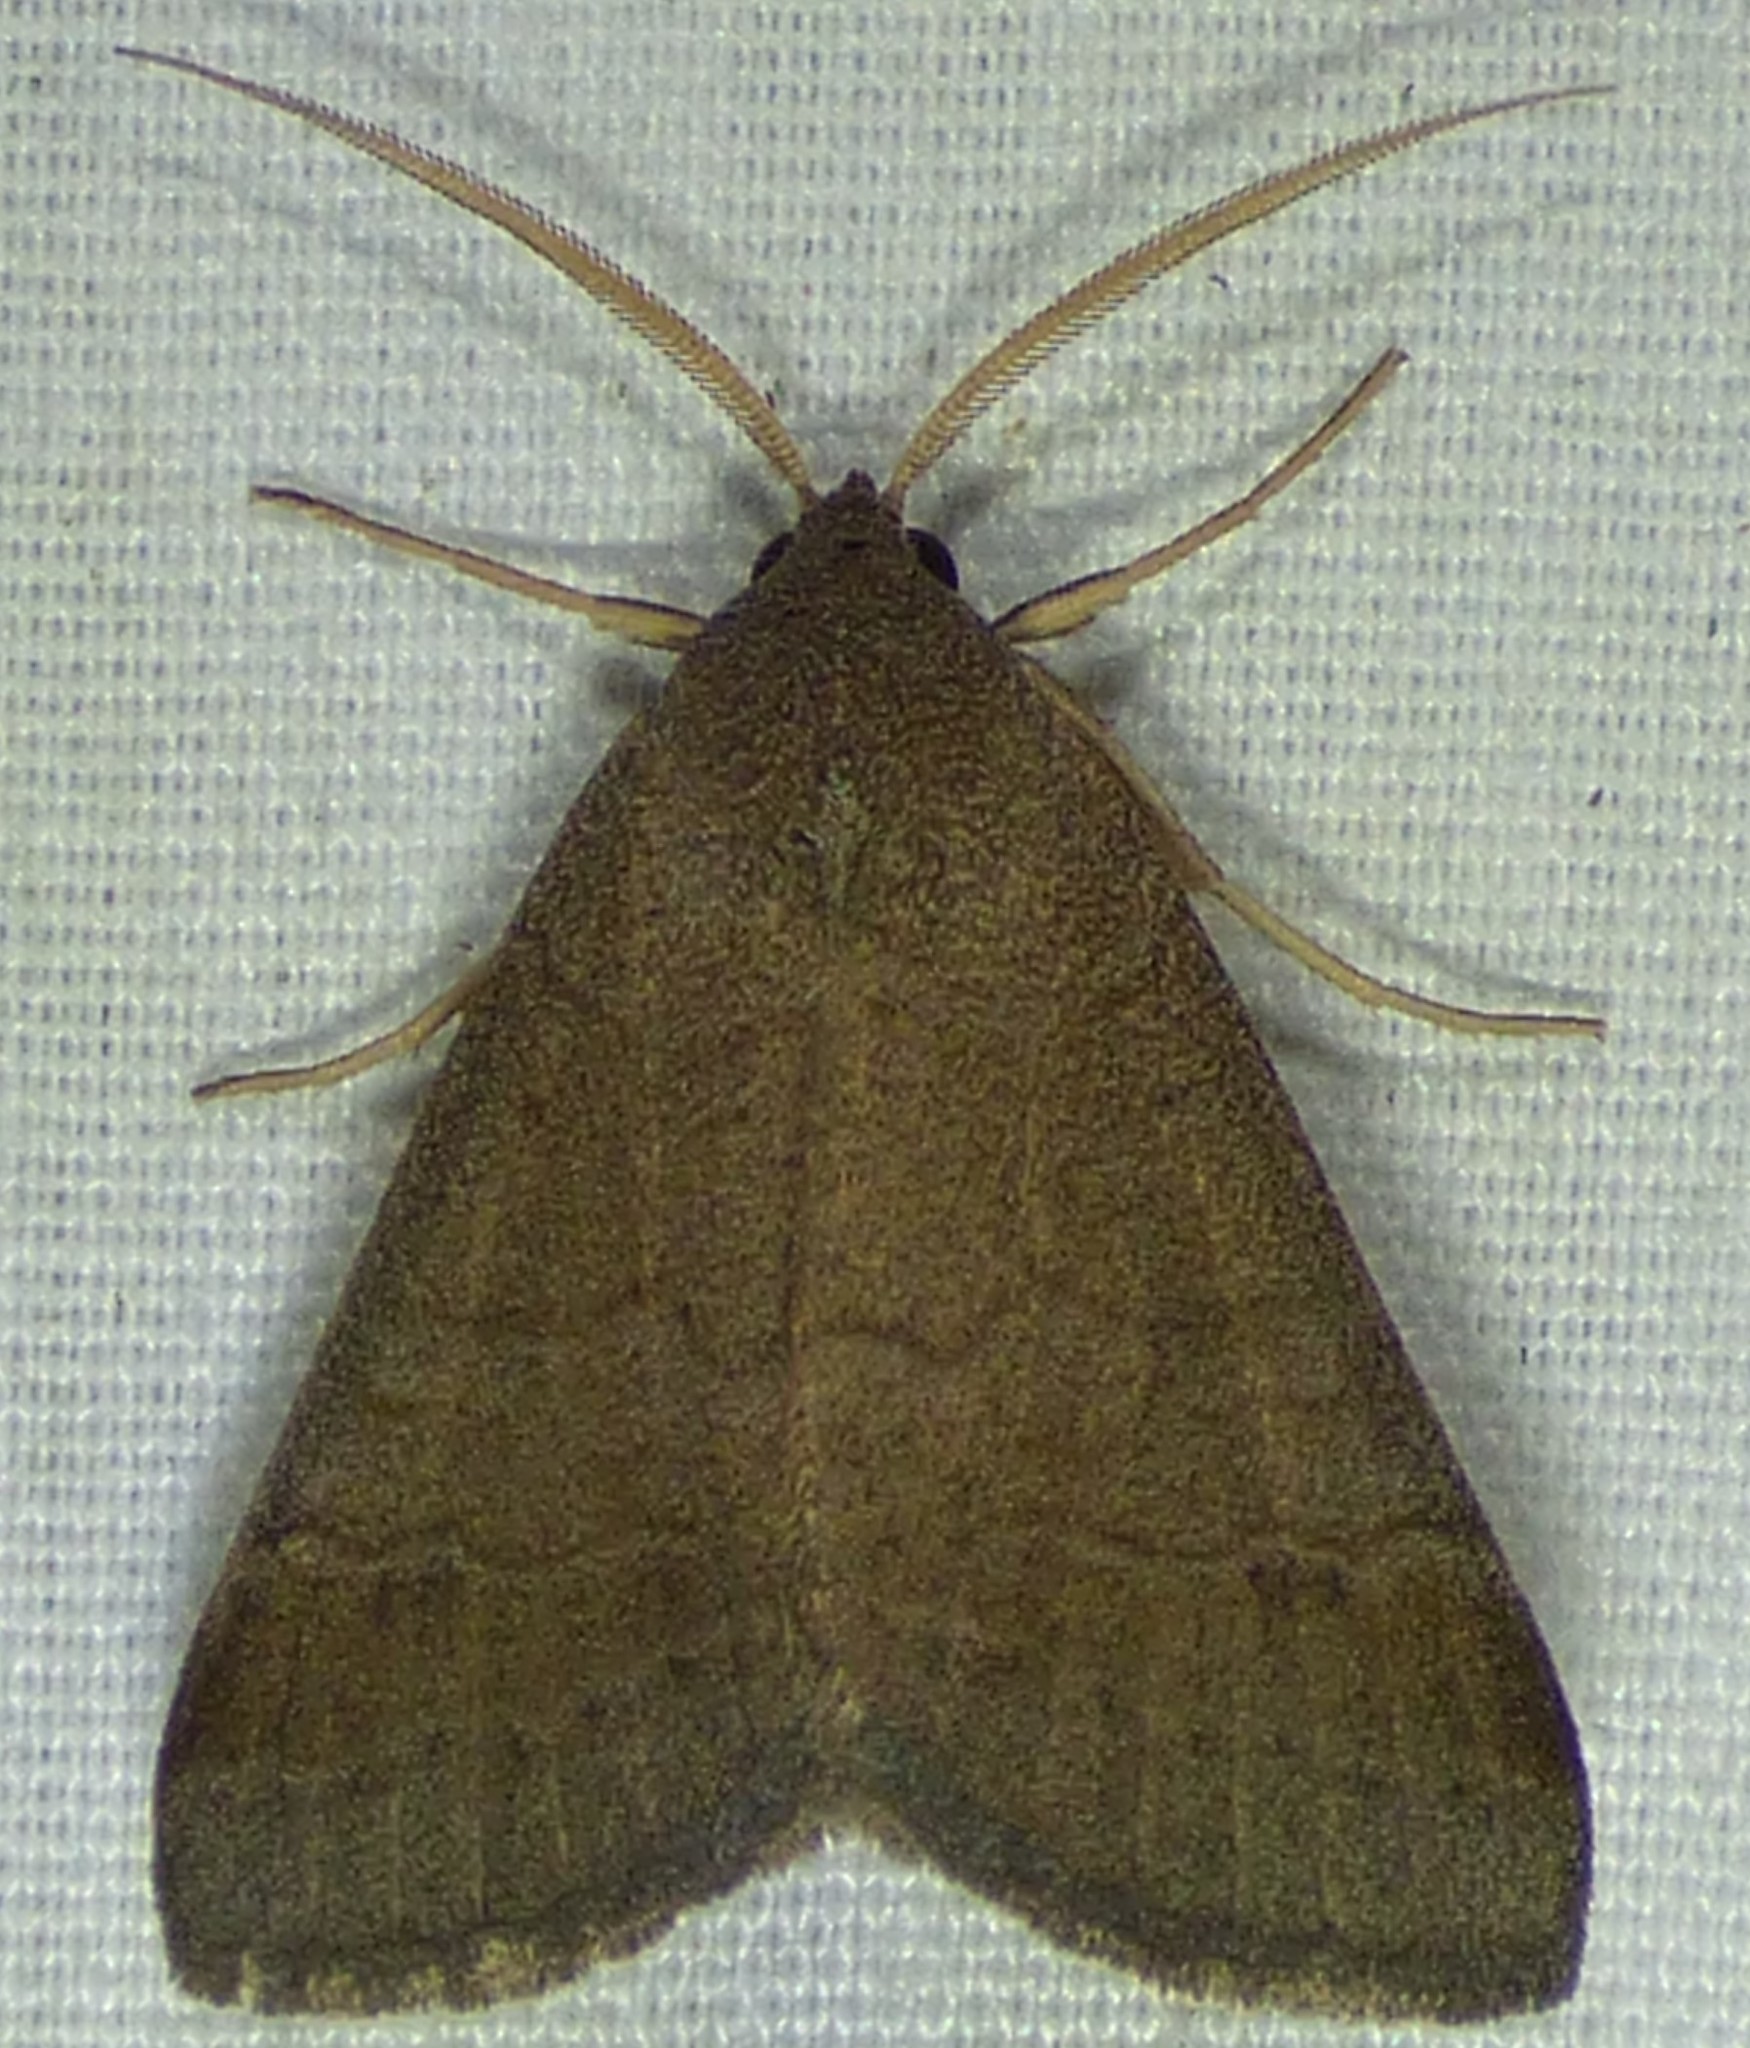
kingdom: Animalia
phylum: Arthropoda
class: Insecta
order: Lepidoptera
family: Erebidae
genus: Caenurgia
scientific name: Caenurgia chloropha
